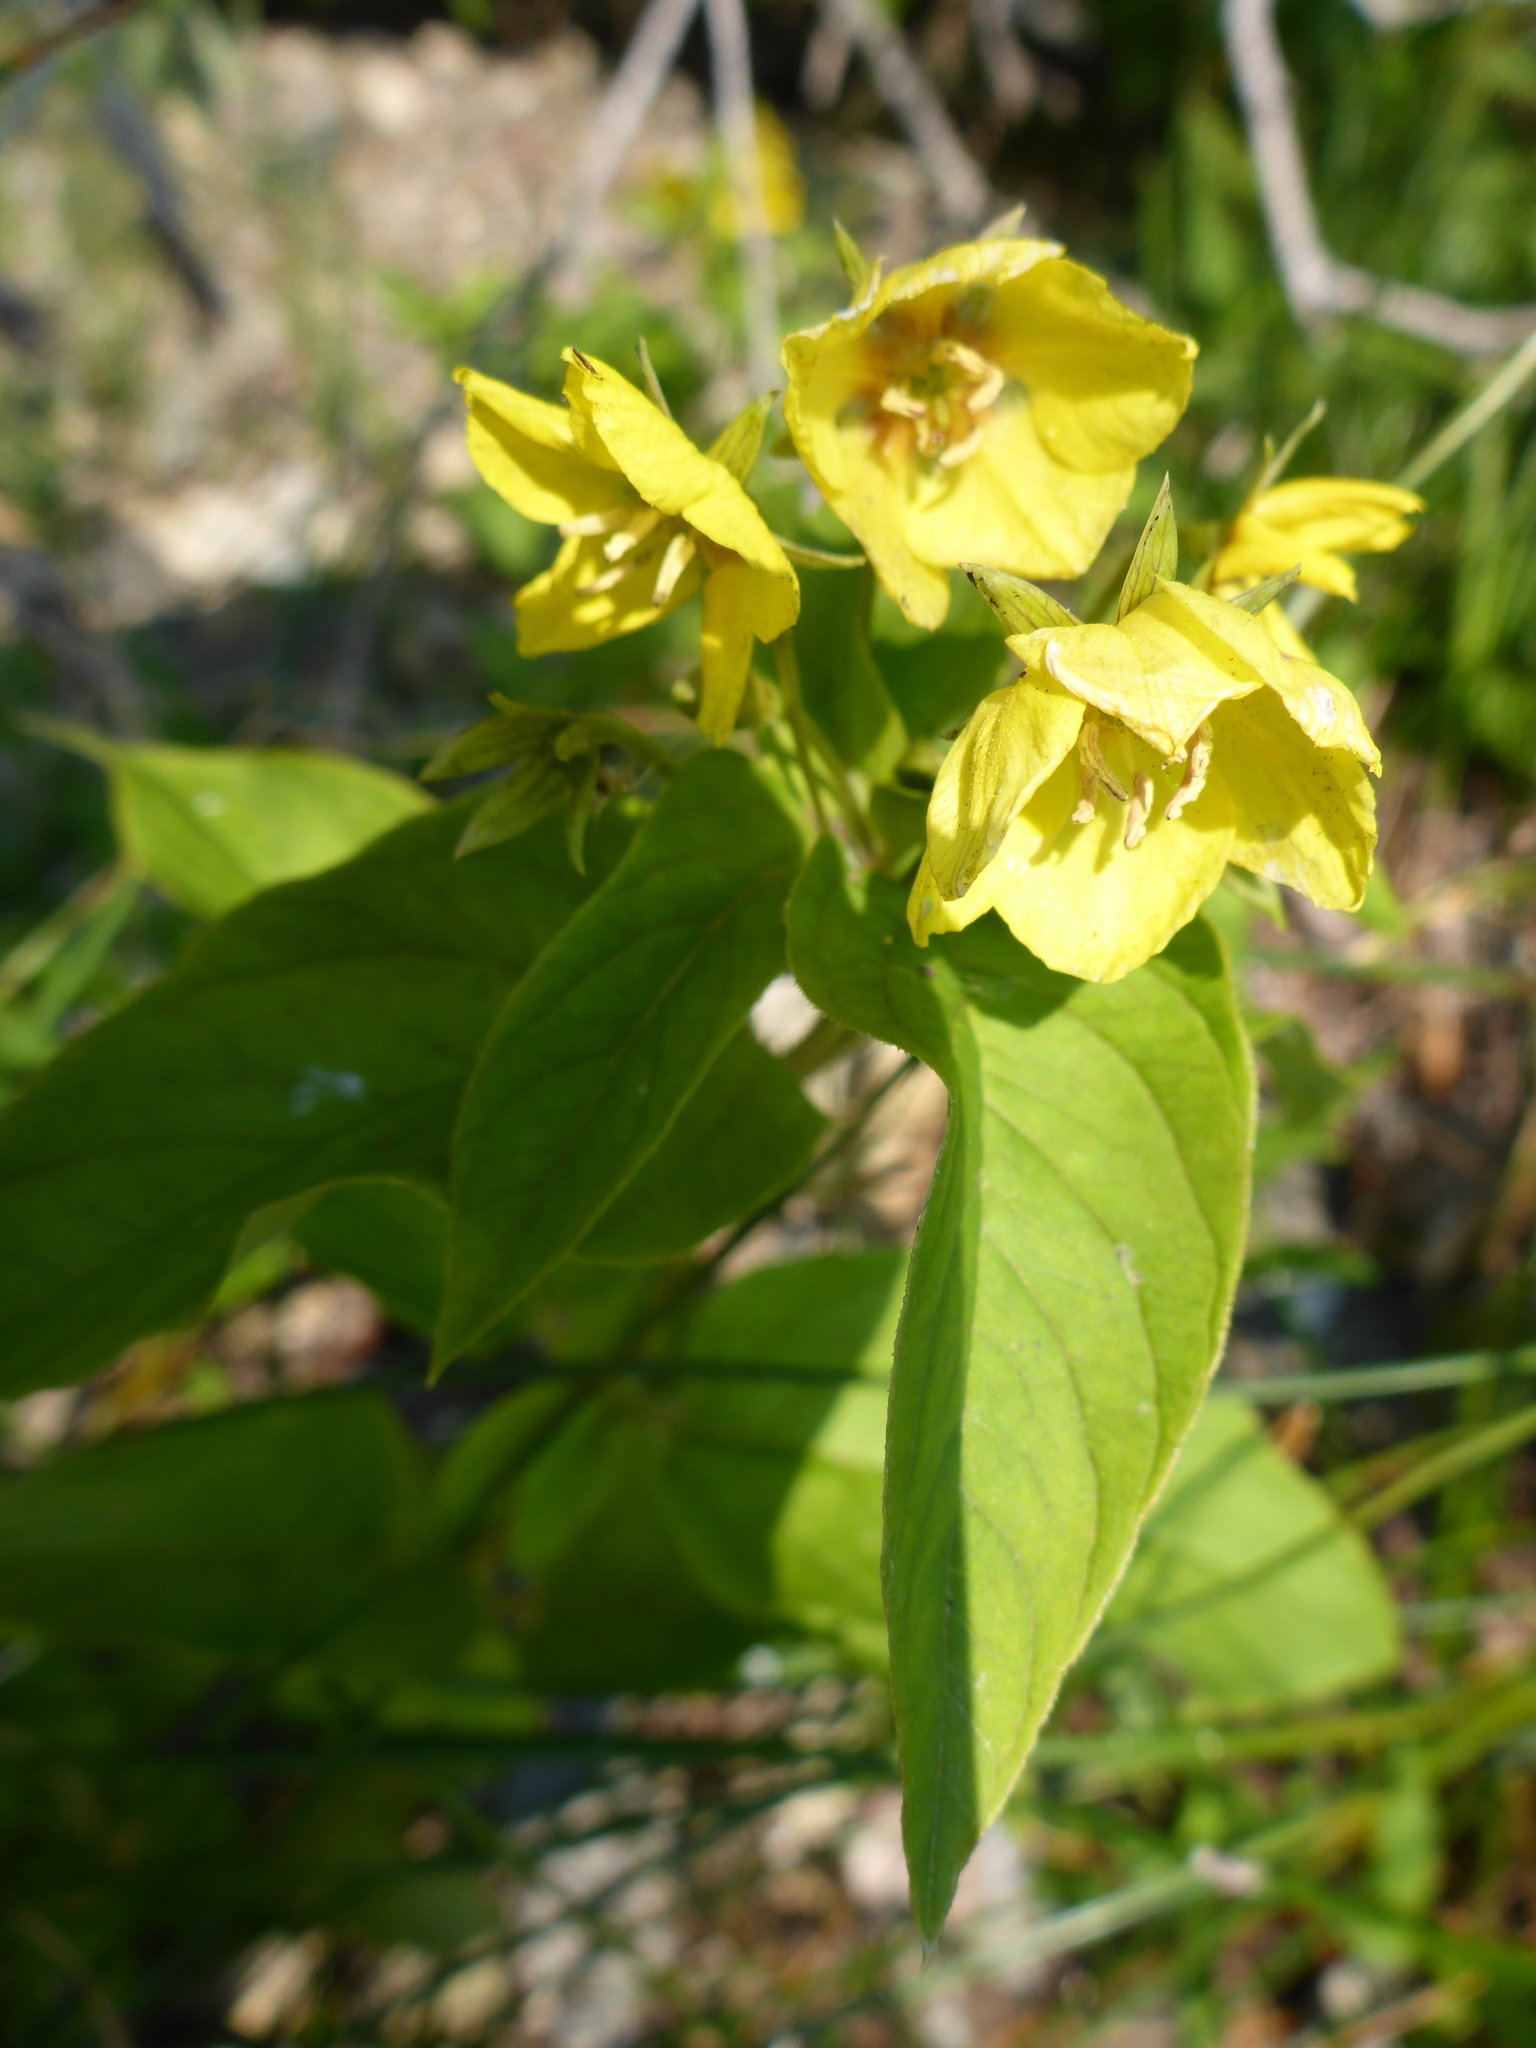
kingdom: Plantae
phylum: Tracheophyta
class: Magnoliopsida
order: Ericales
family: Primulaceae
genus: Lysimachia
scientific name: Lysimachia ciliata
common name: Fringed loosestrife
